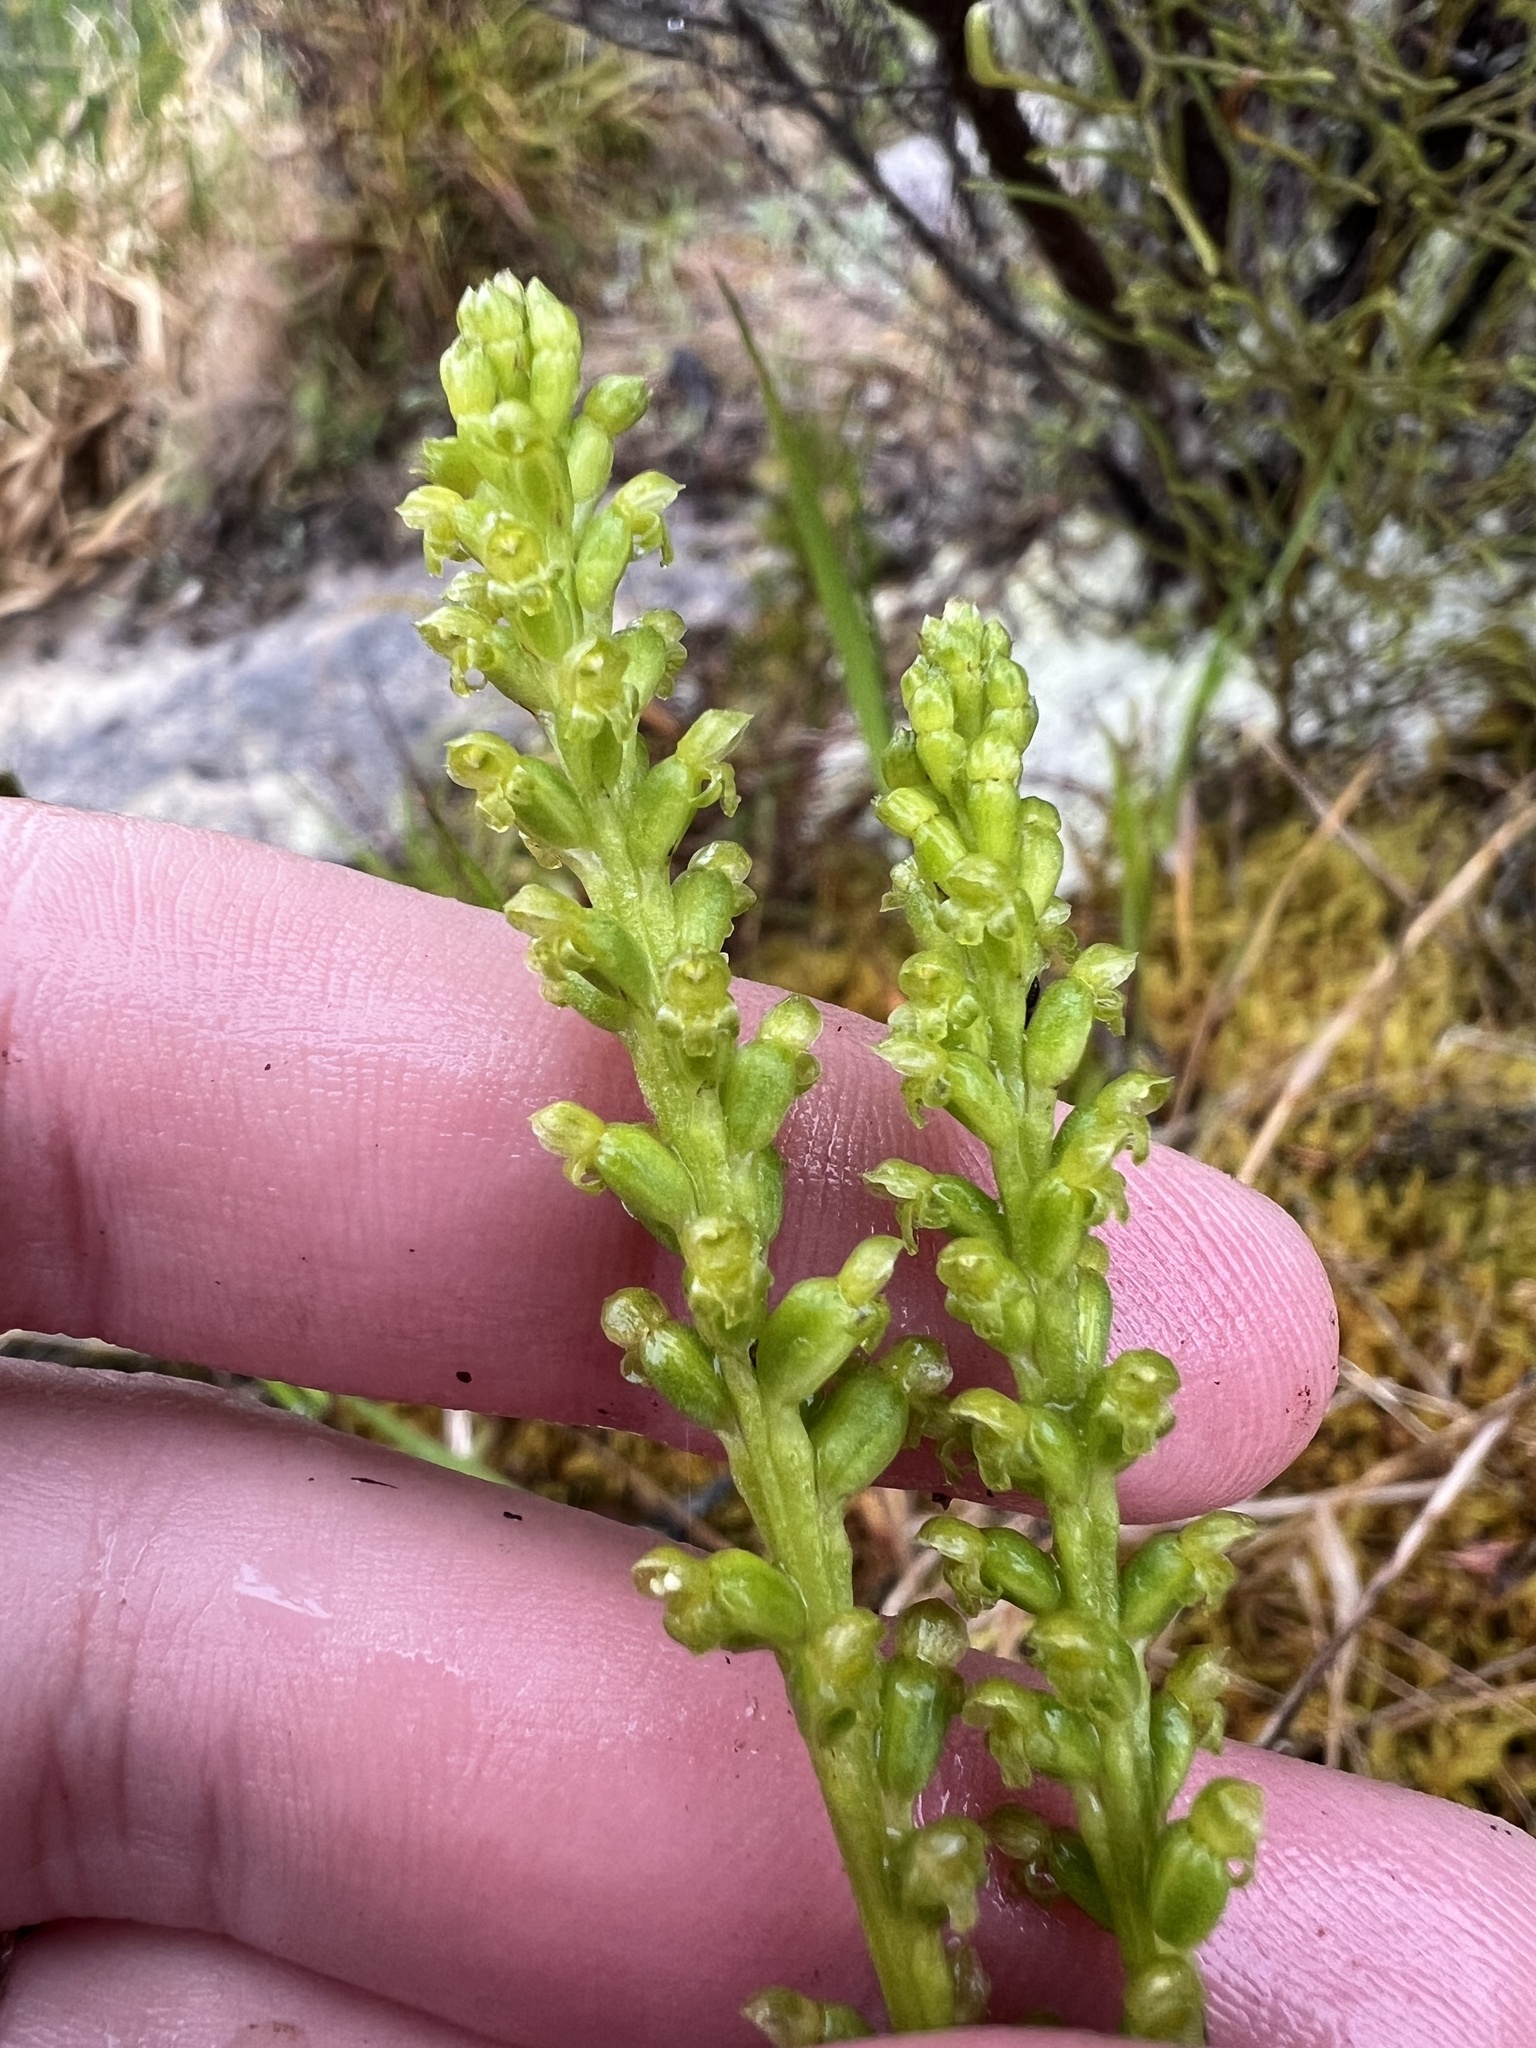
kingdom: Plantae
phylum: Tracheophyta
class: Liliopsida
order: Asparagales
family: Orchidaceae
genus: Microtis
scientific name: Microtis unifolia
